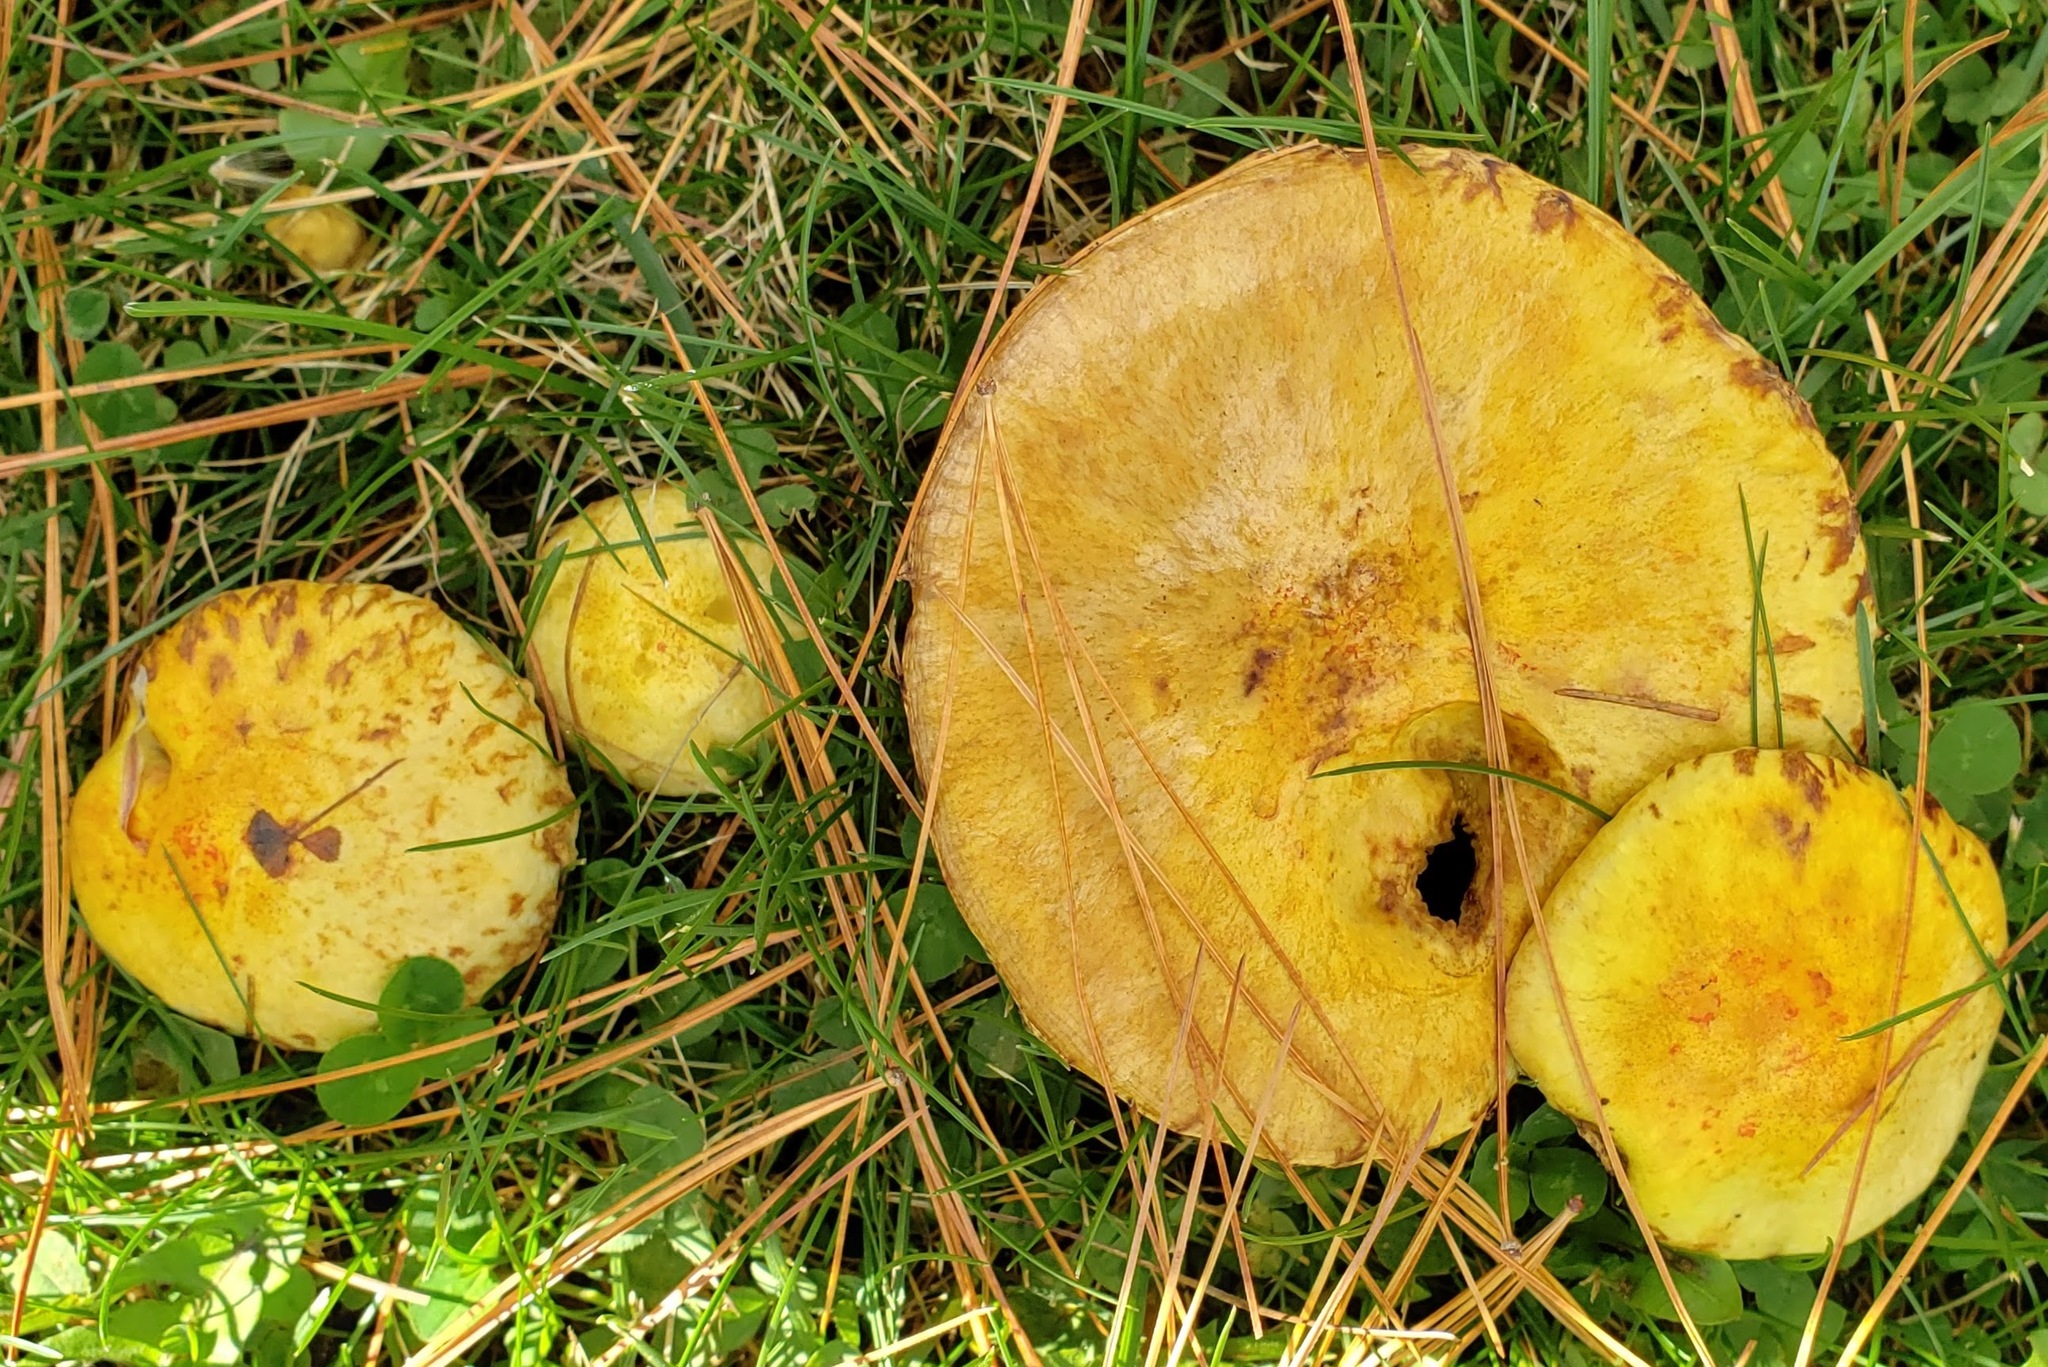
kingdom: Fungi
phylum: Basidiomycota
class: Agaricomycetes
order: Boletales
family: Suillaceae
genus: Suillus
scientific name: Suillus americanus
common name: Chicken fat mushroom
